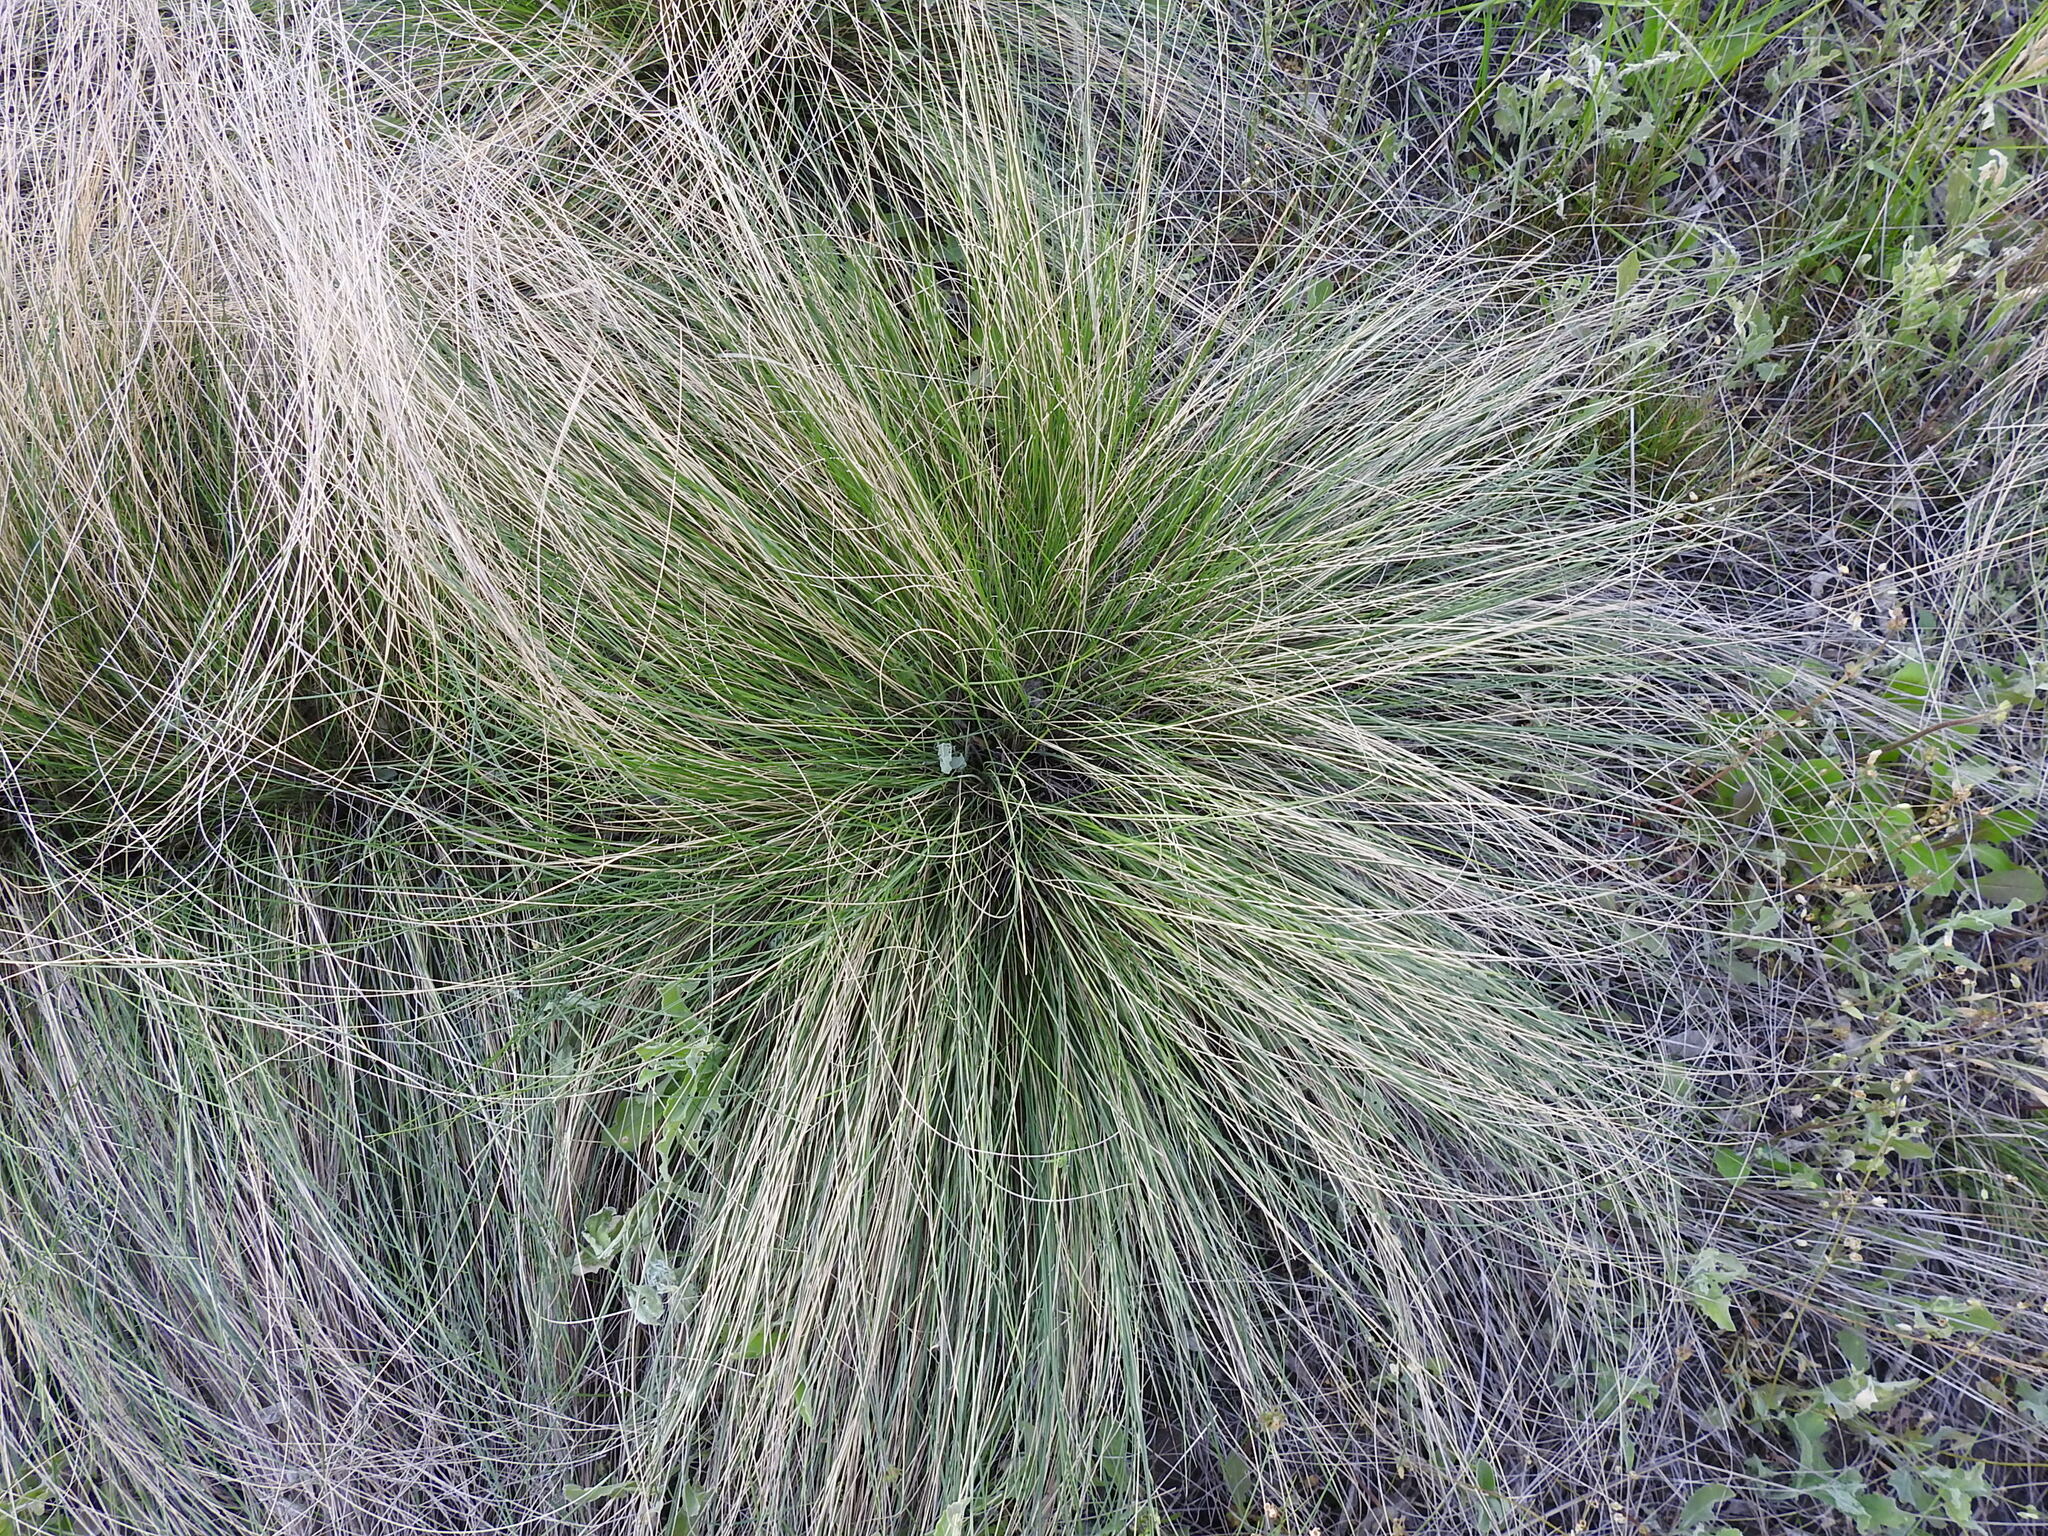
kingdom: Plantae
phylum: Tracheophyta
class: Liliopsida
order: Poales
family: Poaceae
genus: Stipa
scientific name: Stipa lessingiana
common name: Needle grass
